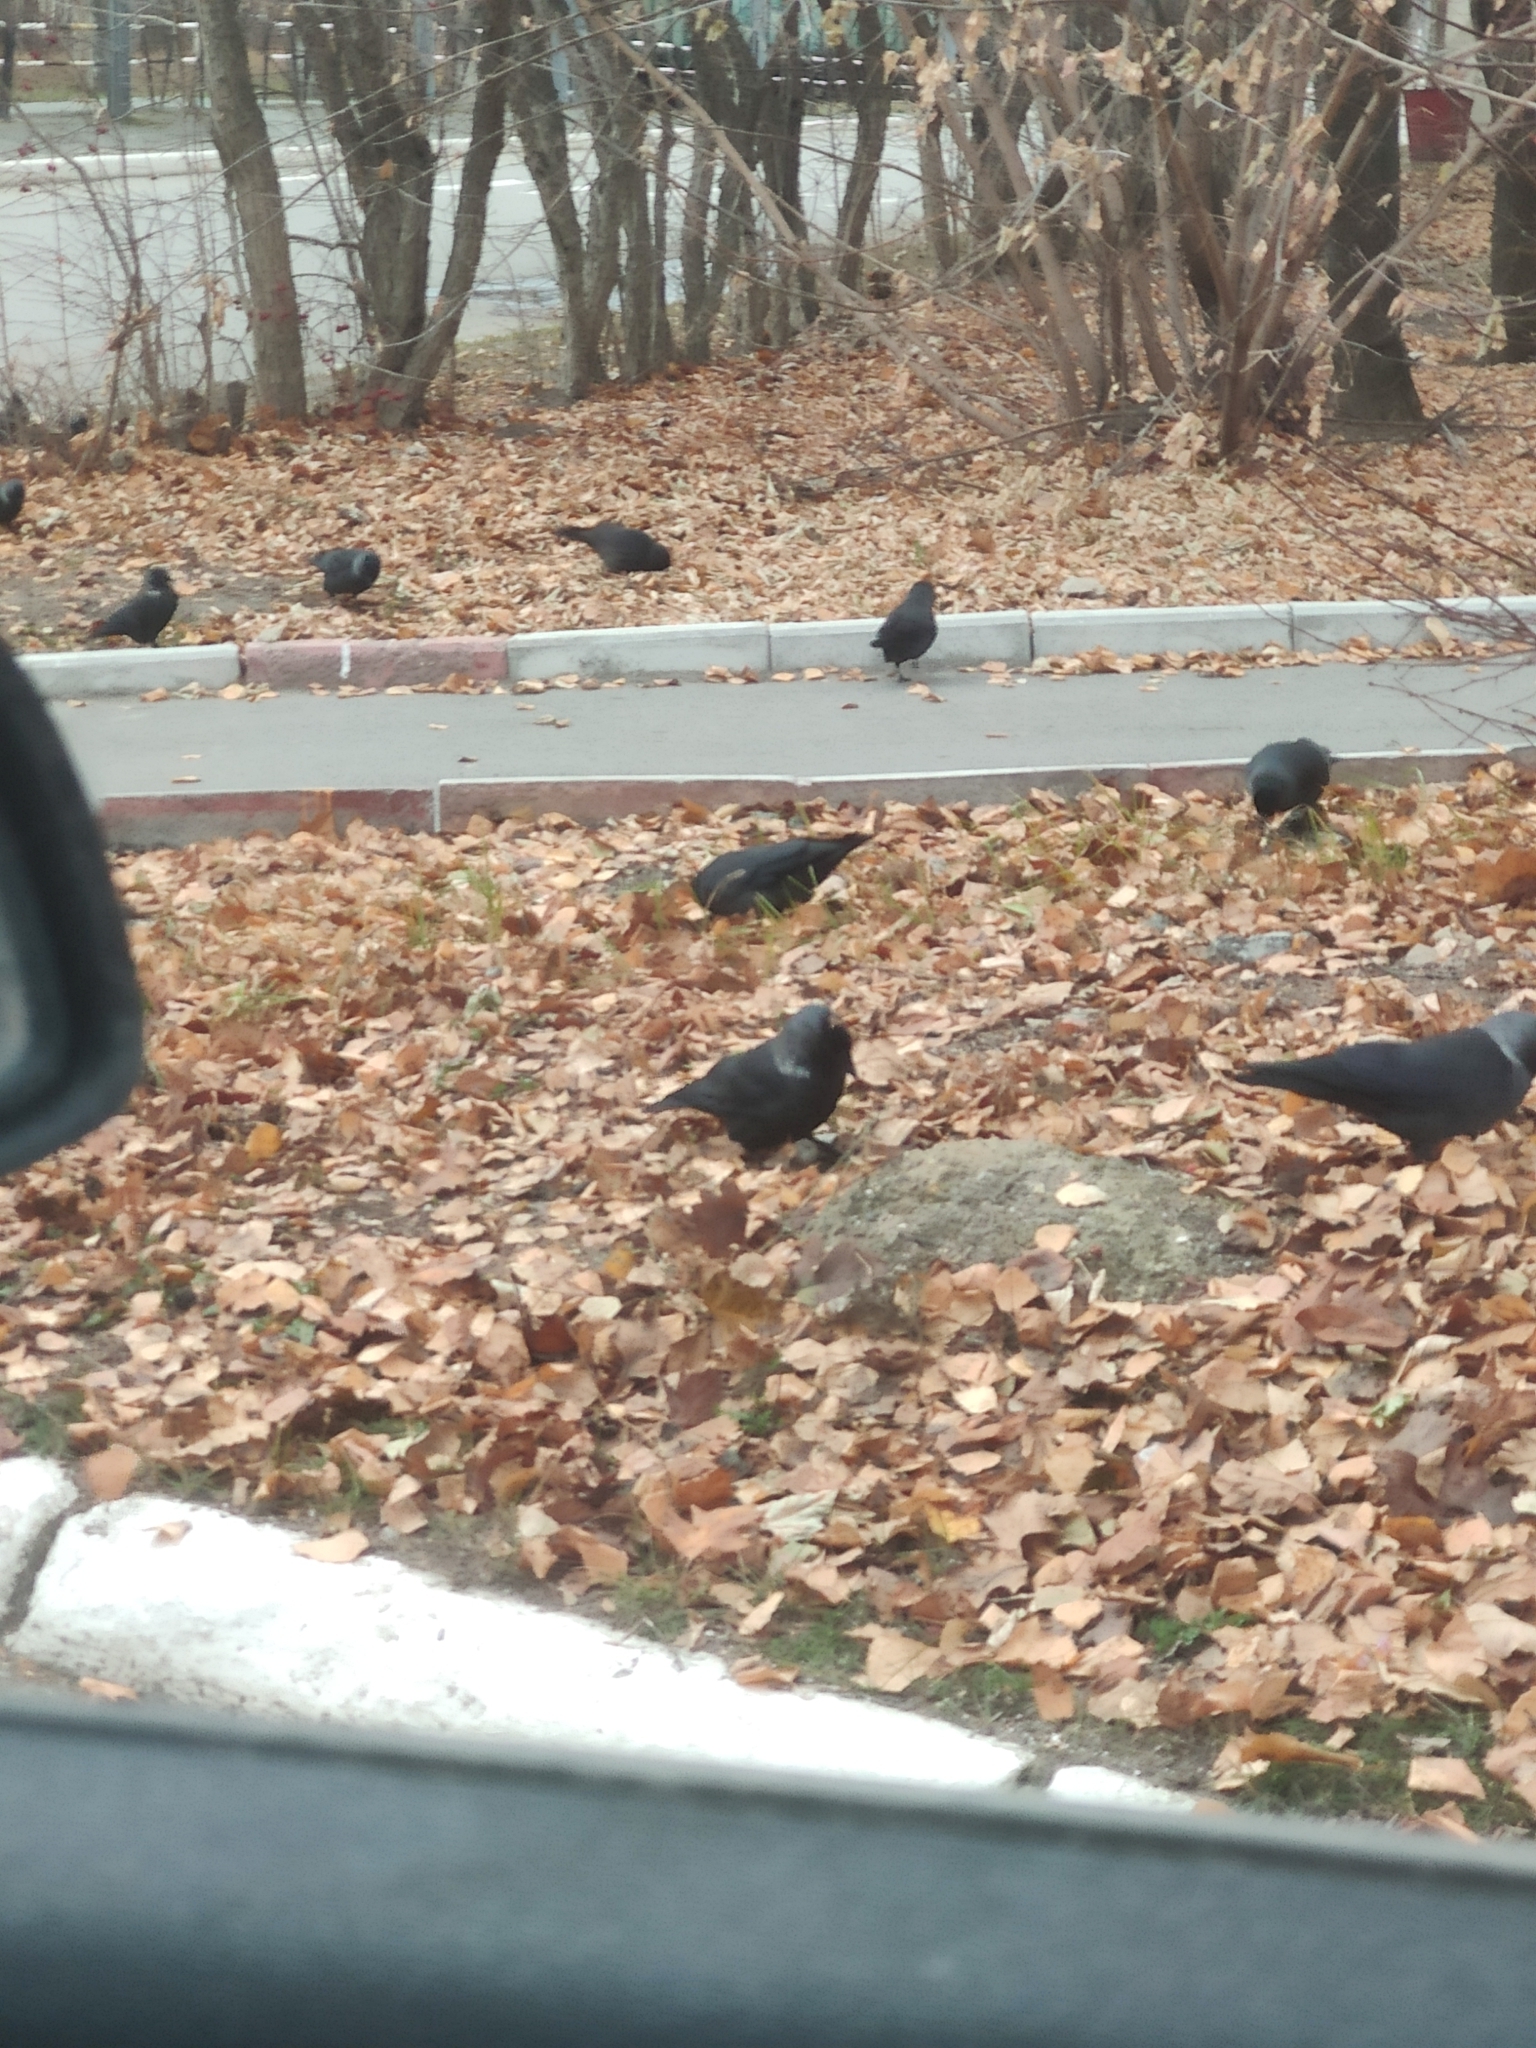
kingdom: Animalia
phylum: Chordata
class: Aves
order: Passeriformes
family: Corvidae
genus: Coloeus
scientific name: Coloeus monedula
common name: Western jackdaw
